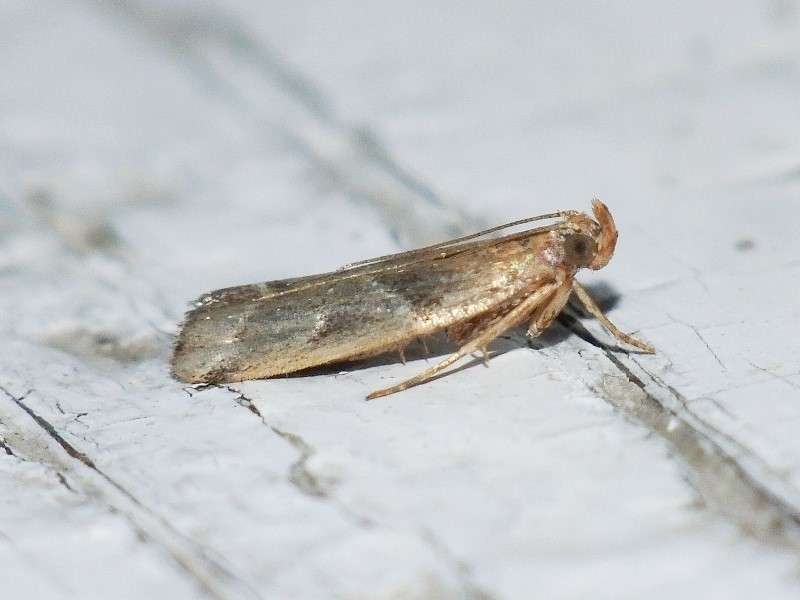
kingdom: Animalia
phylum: Arthropoda
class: Insecta
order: Lepidoptera
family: Pyralidae
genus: Nyctegretis
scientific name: Nyctegretis lineana
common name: Agate knot-horn
